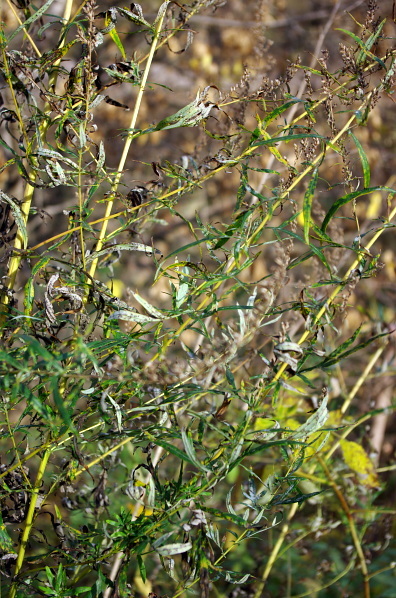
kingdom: Plantae
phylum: Tracheophyta
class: Magnoliopsida
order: Asterales
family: Asteraceae
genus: Artemisia
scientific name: Artemisia vulgaris
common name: Mugwort
